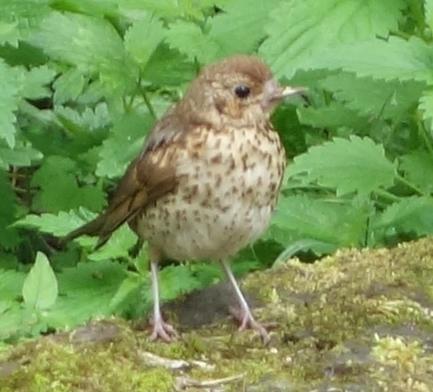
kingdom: Animalia
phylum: Chordata
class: Aves
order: Passeriformes
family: Turdidae
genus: Turdus
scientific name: Turdus philomelos
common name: Song thrush
